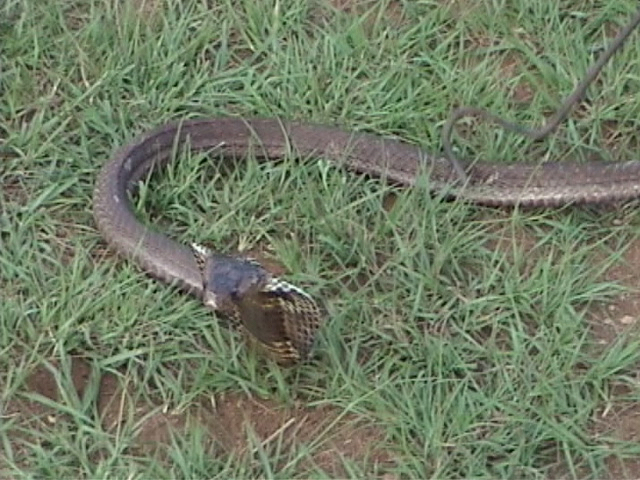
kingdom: Animalia
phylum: Chordata
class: Squamata
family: Elapidae
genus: Naja
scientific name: Naja naja
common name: Indian cobra
